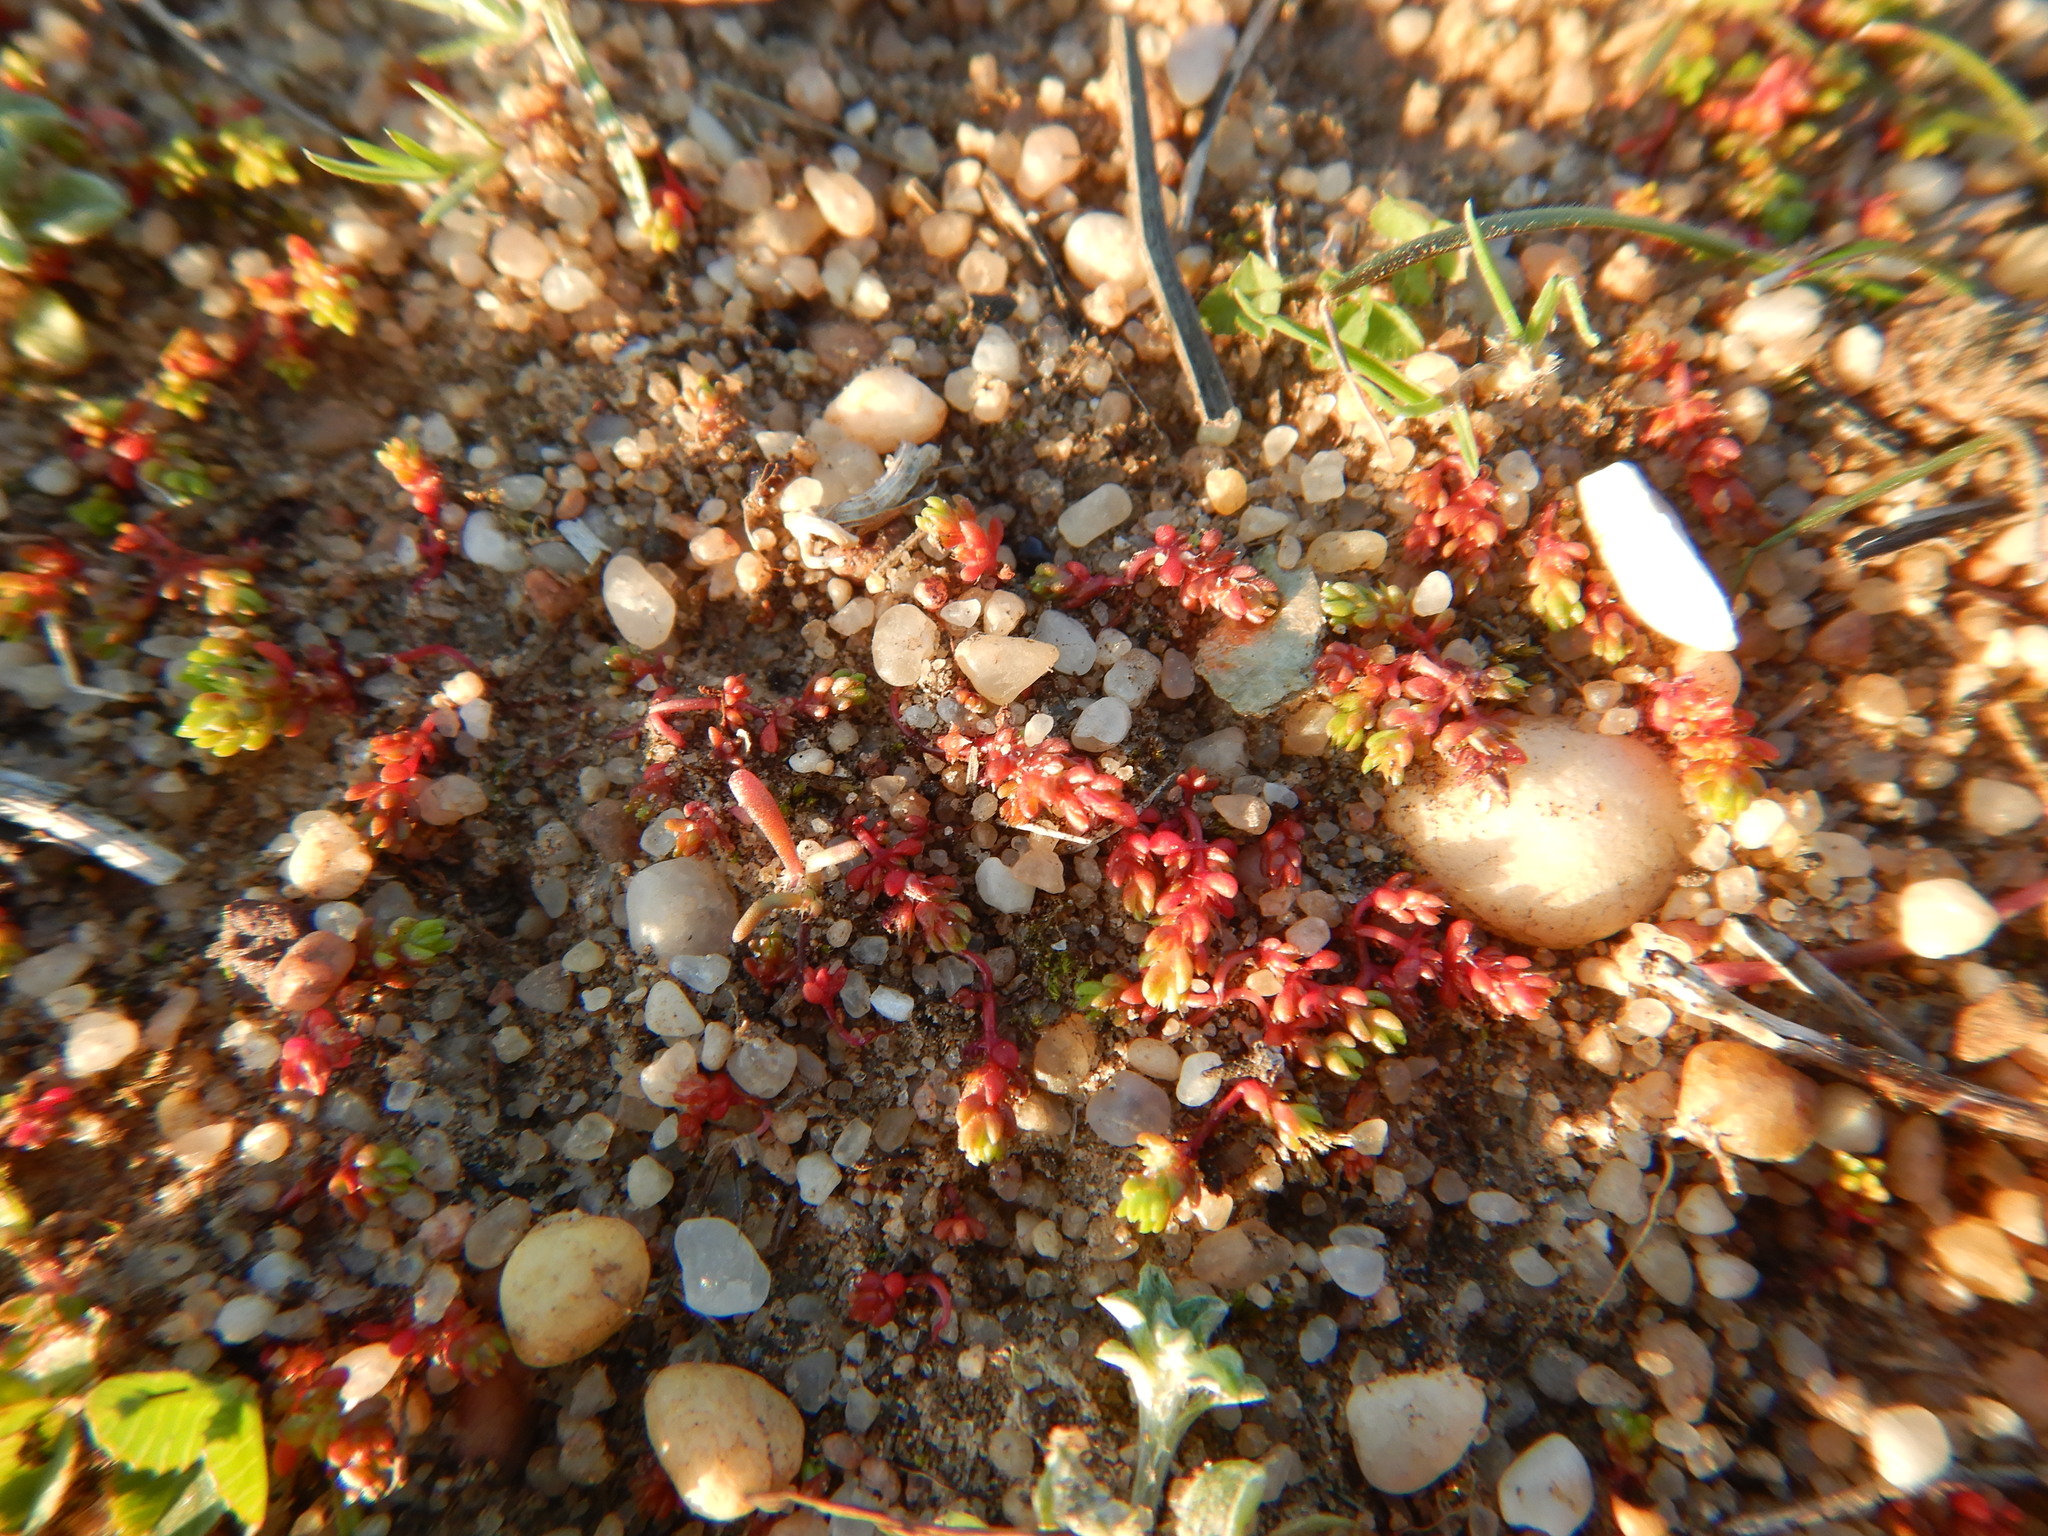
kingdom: Plantae
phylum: Tracheophyta
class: Magnoliopsida
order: Saxifragales
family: Crassulaceae
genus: Crassula
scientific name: Crassula tillaea
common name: Mossy stonecrop
